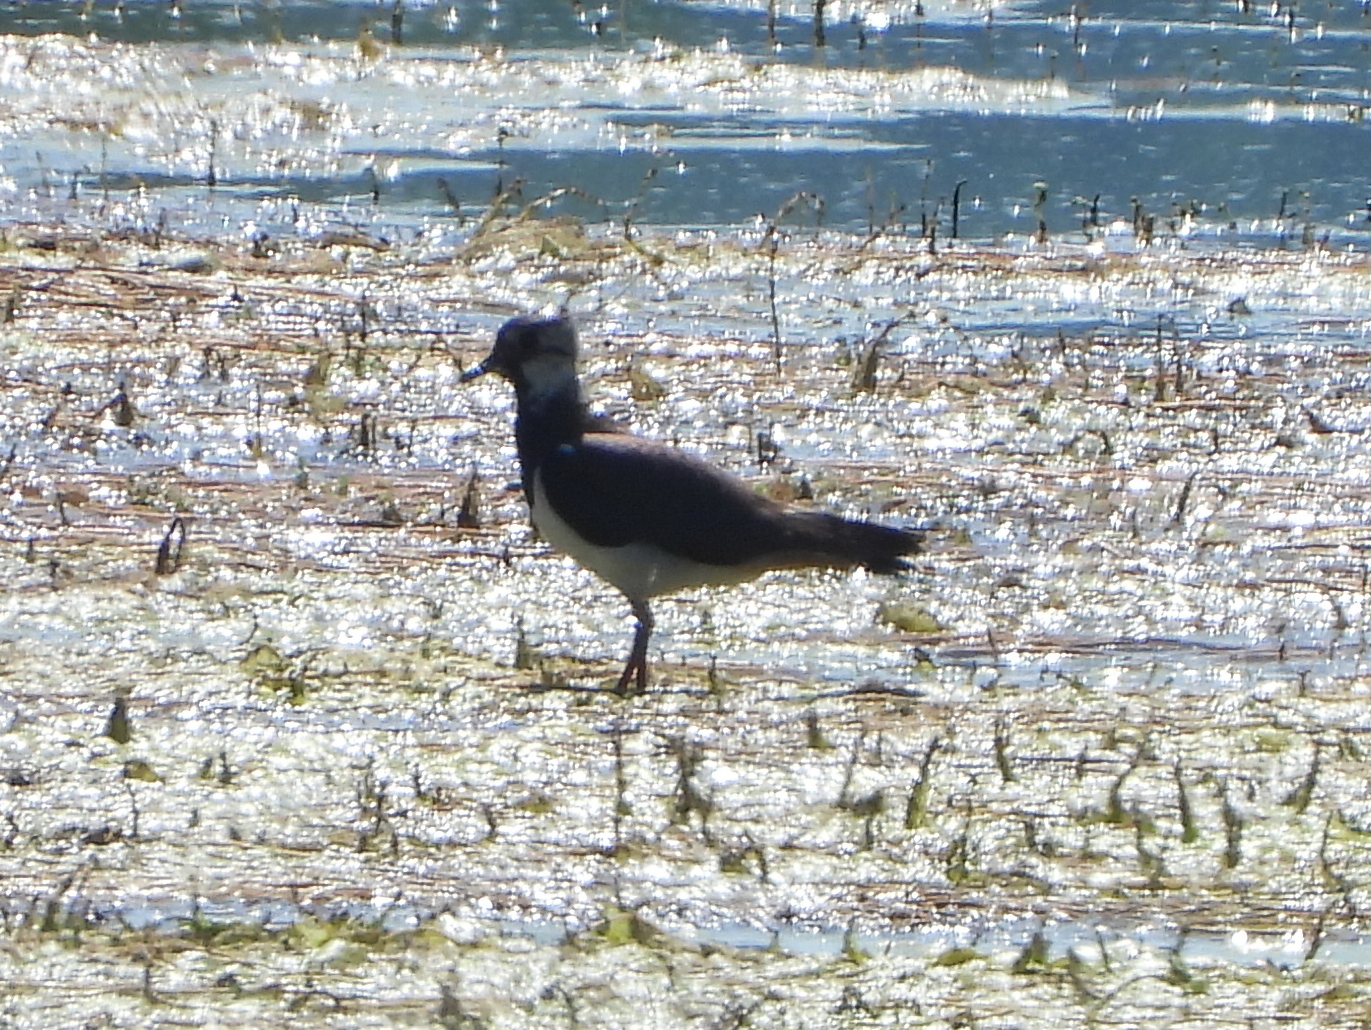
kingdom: Animalia
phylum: Chordata
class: Aves
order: Charadriiformes
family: Charadriidae
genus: Vanellus
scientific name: Vanellus vanellus
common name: Northern lapwing
